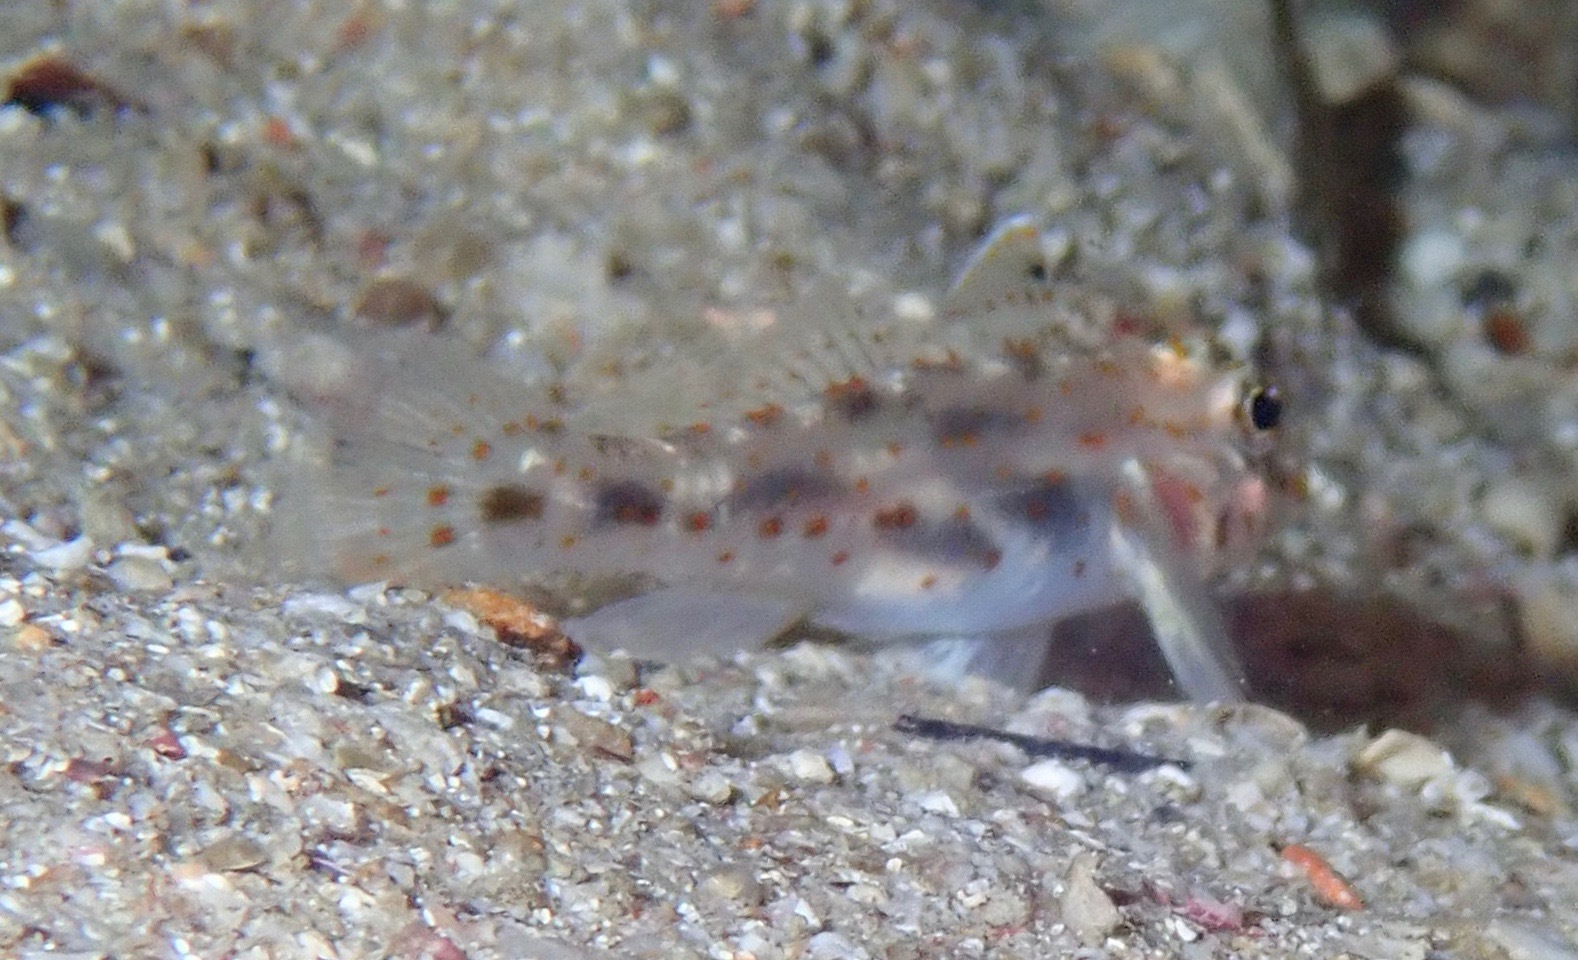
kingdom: Animalia
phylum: Chordata
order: Perciformes
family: Gobiidae
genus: Fusigobius
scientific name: Fusigobius maximus
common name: Large sandgoby
